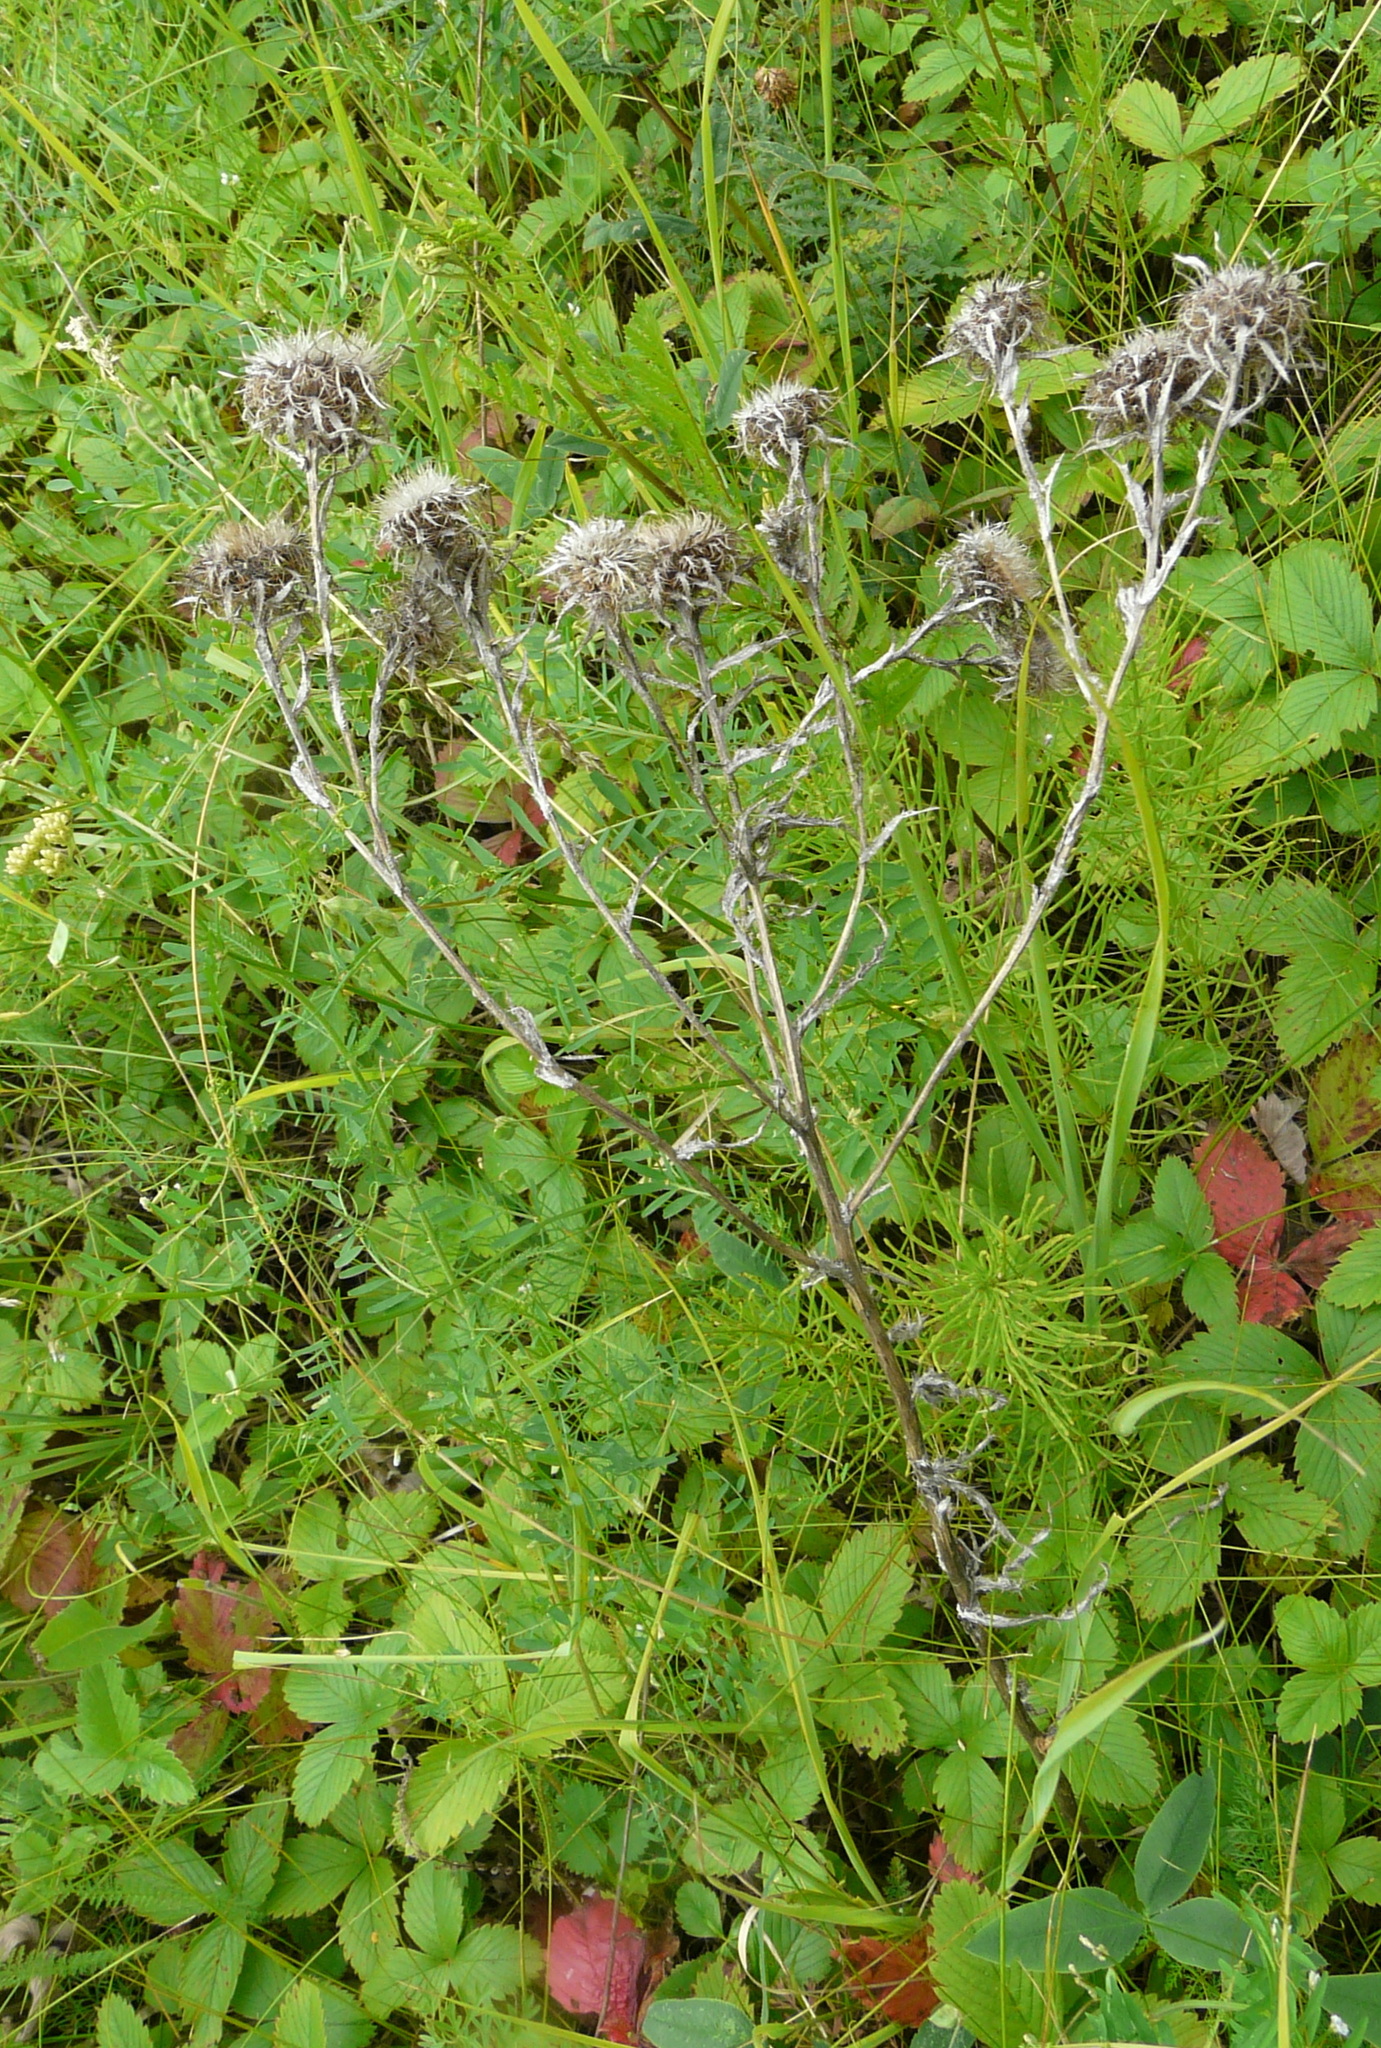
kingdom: Plantae
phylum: Tracheophyta
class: Magnoliopsida
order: Asterales
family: Asteraceae
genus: Carlina
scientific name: Carlina biebersteinii
